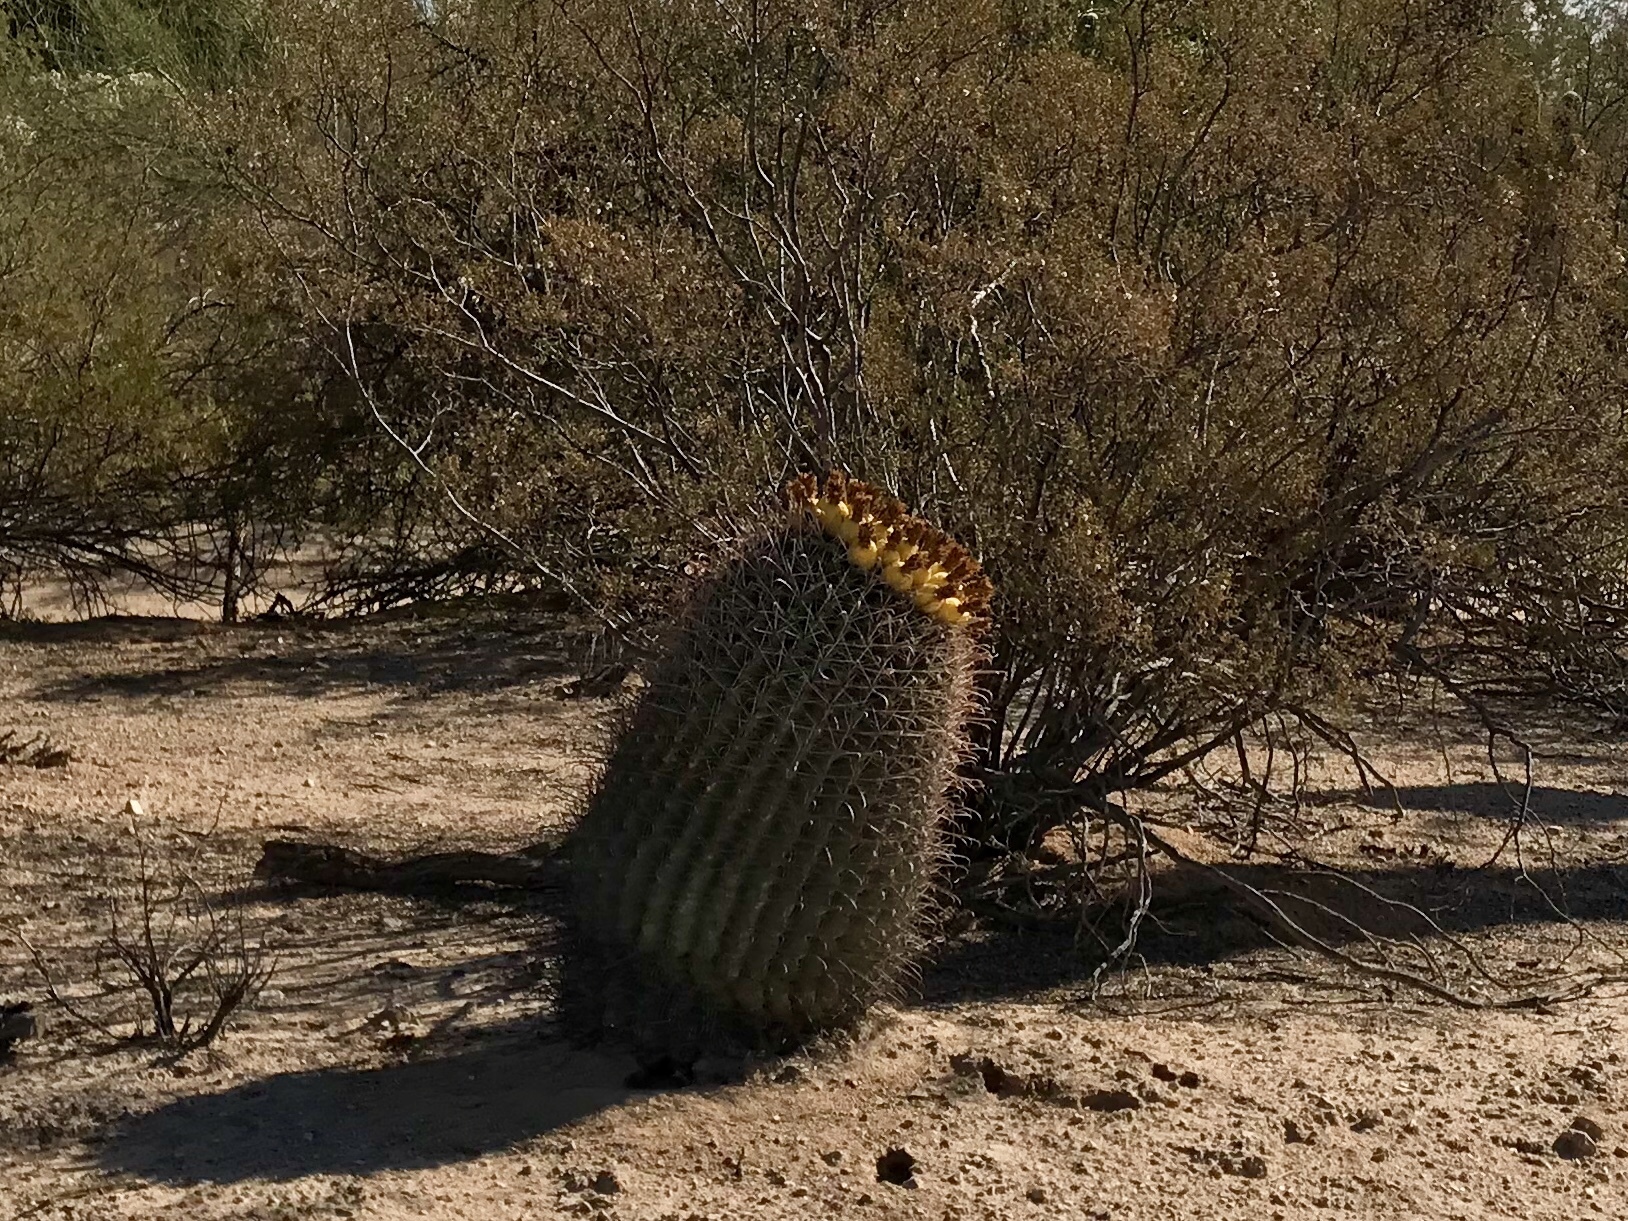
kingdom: Plantae
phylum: Tracheophyta
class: Magnoliopsida
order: Caryophyllales
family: Cactaceae
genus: Ferocactus
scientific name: Ferocactus wislizeni
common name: Candy barrel cactus
